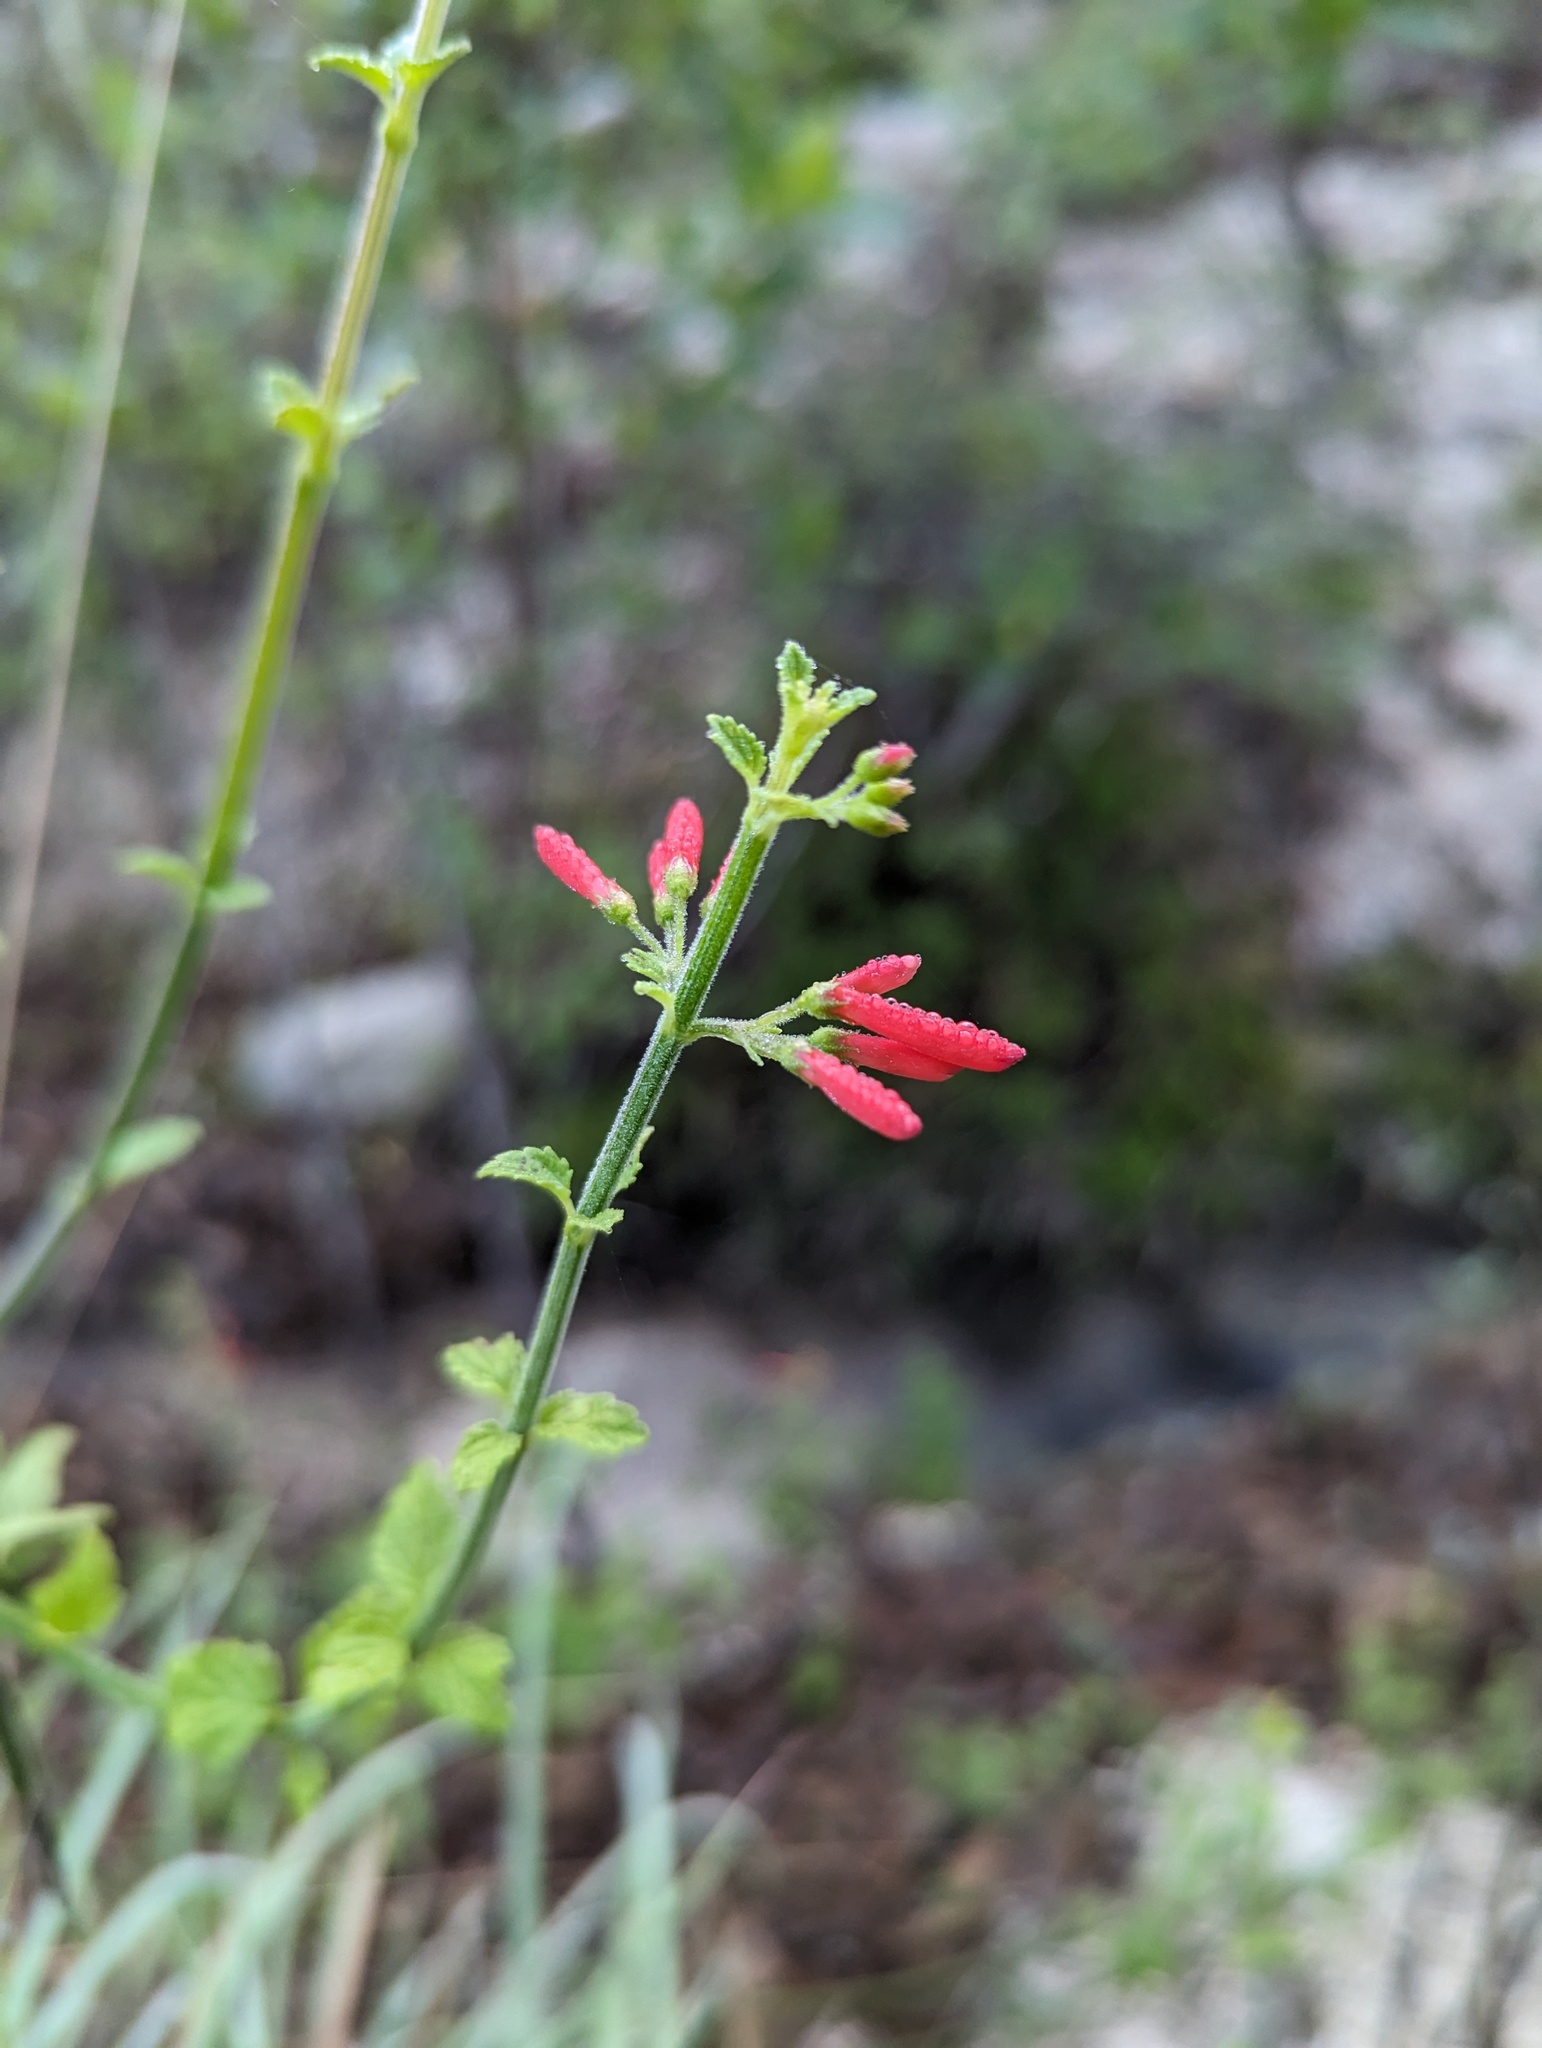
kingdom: Plantae
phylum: Tracheophyta
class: Magnoliopsida
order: Lamiales
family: Plantaginaceae
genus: Russelia
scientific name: Russelia retrorsa
